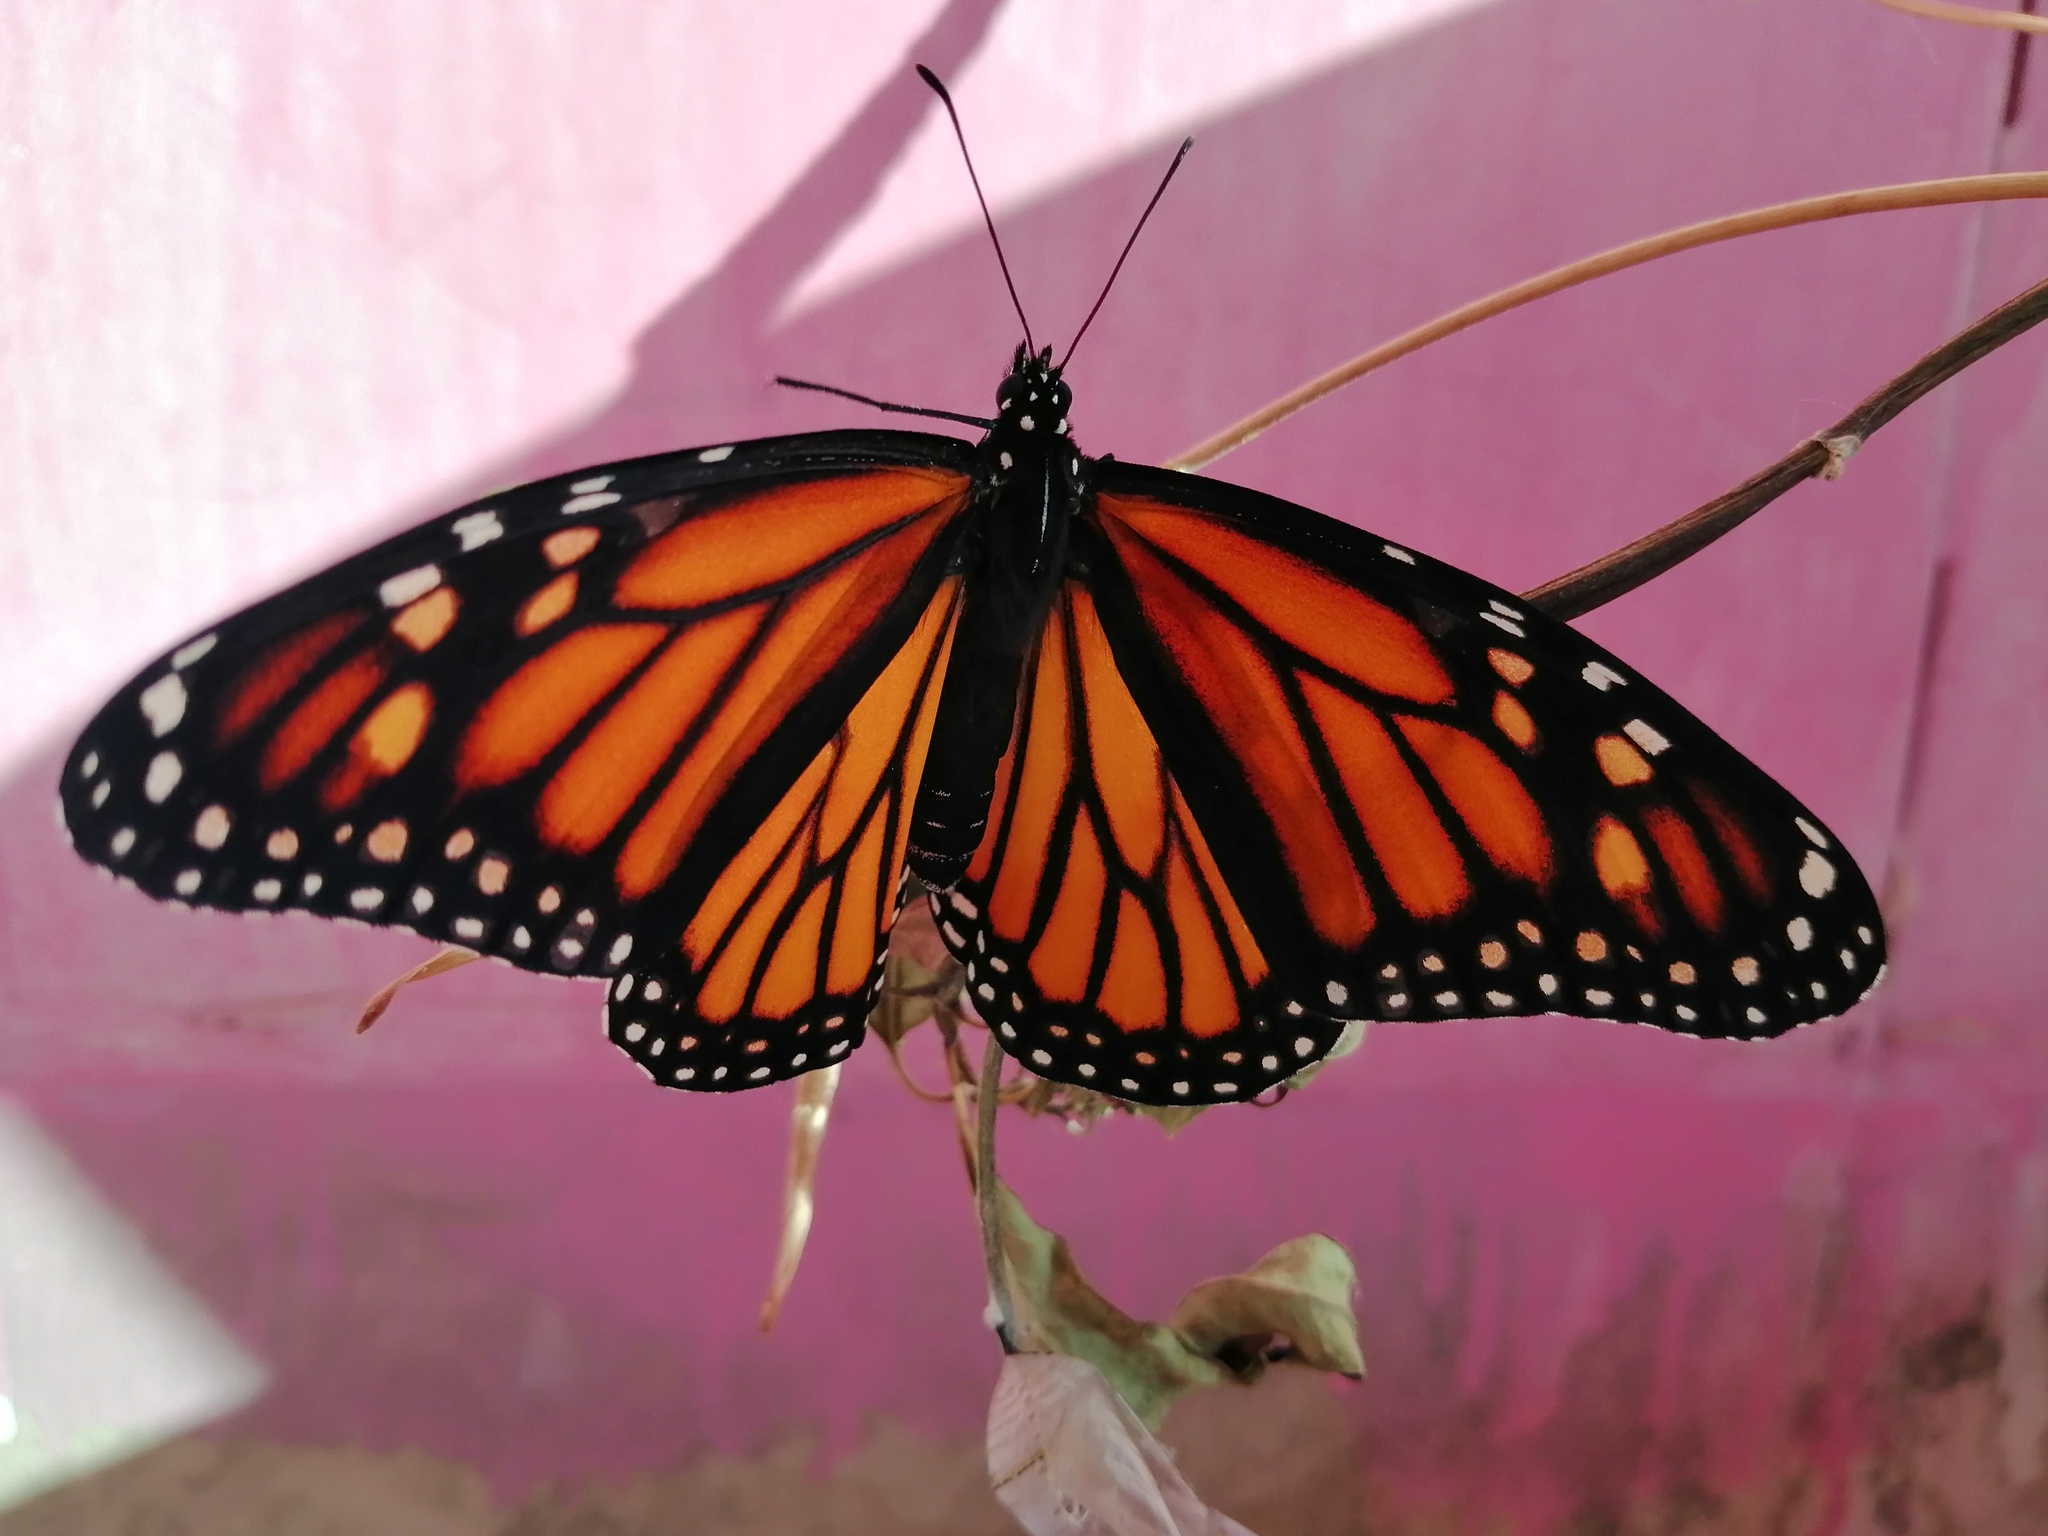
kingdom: Animalia
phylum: Arthropoda
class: Insecta
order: Lepidoptera
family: Nymphalidae
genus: Danaus
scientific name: Danaus plexippus
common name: Monarch
